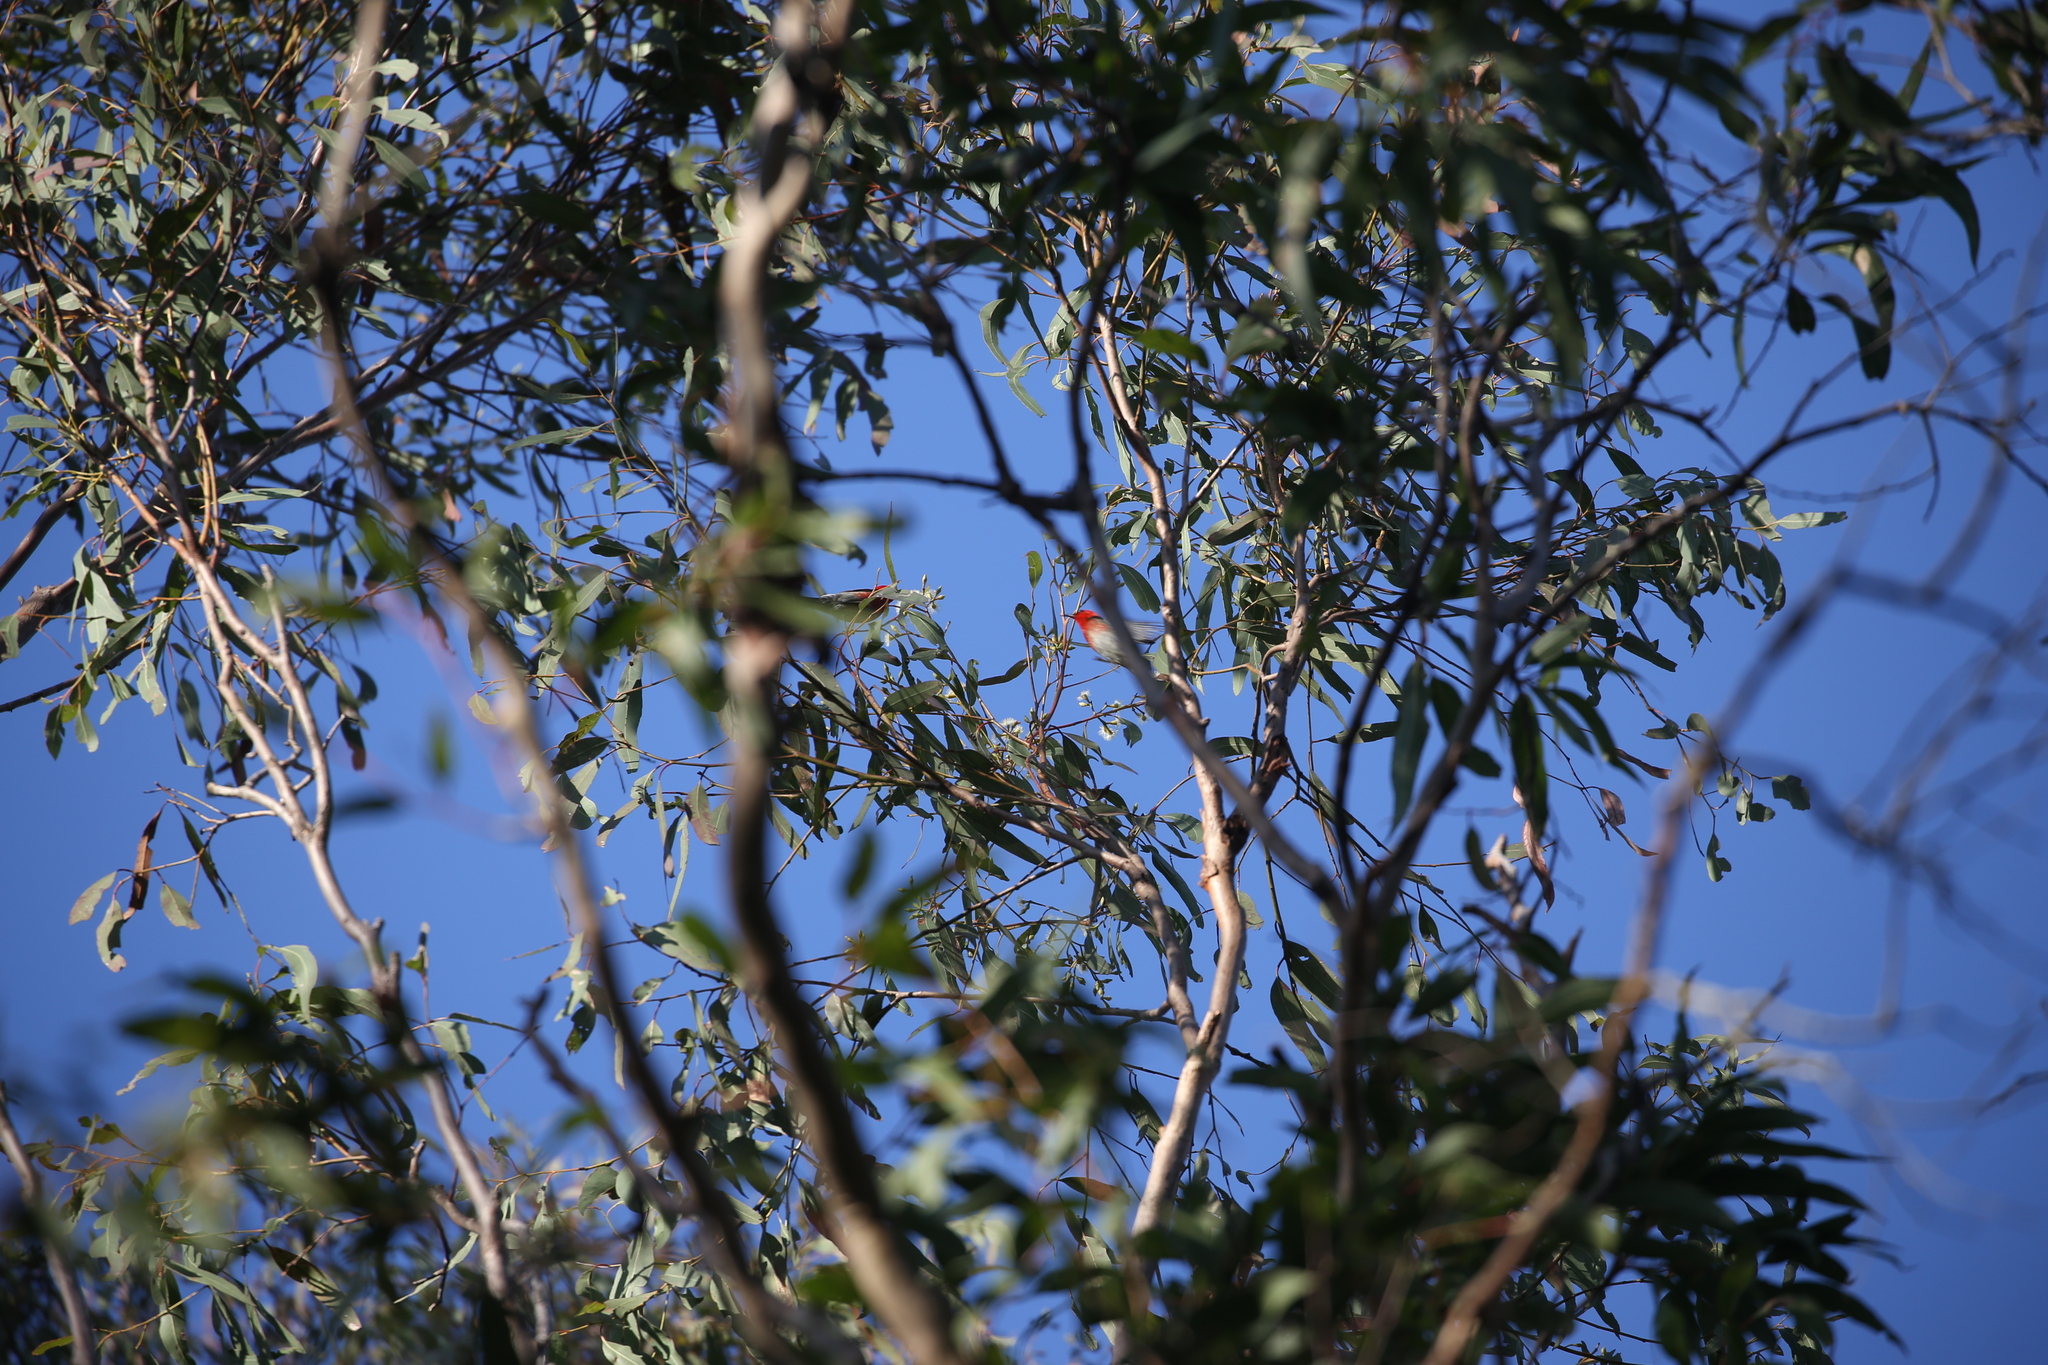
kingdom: Animalia
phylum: Chordata
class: Aves
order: Passeriformes
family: Meliphagidae
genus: Myzomela
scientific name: Myzomela sanguinolenta
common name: Scarlet myzomela
